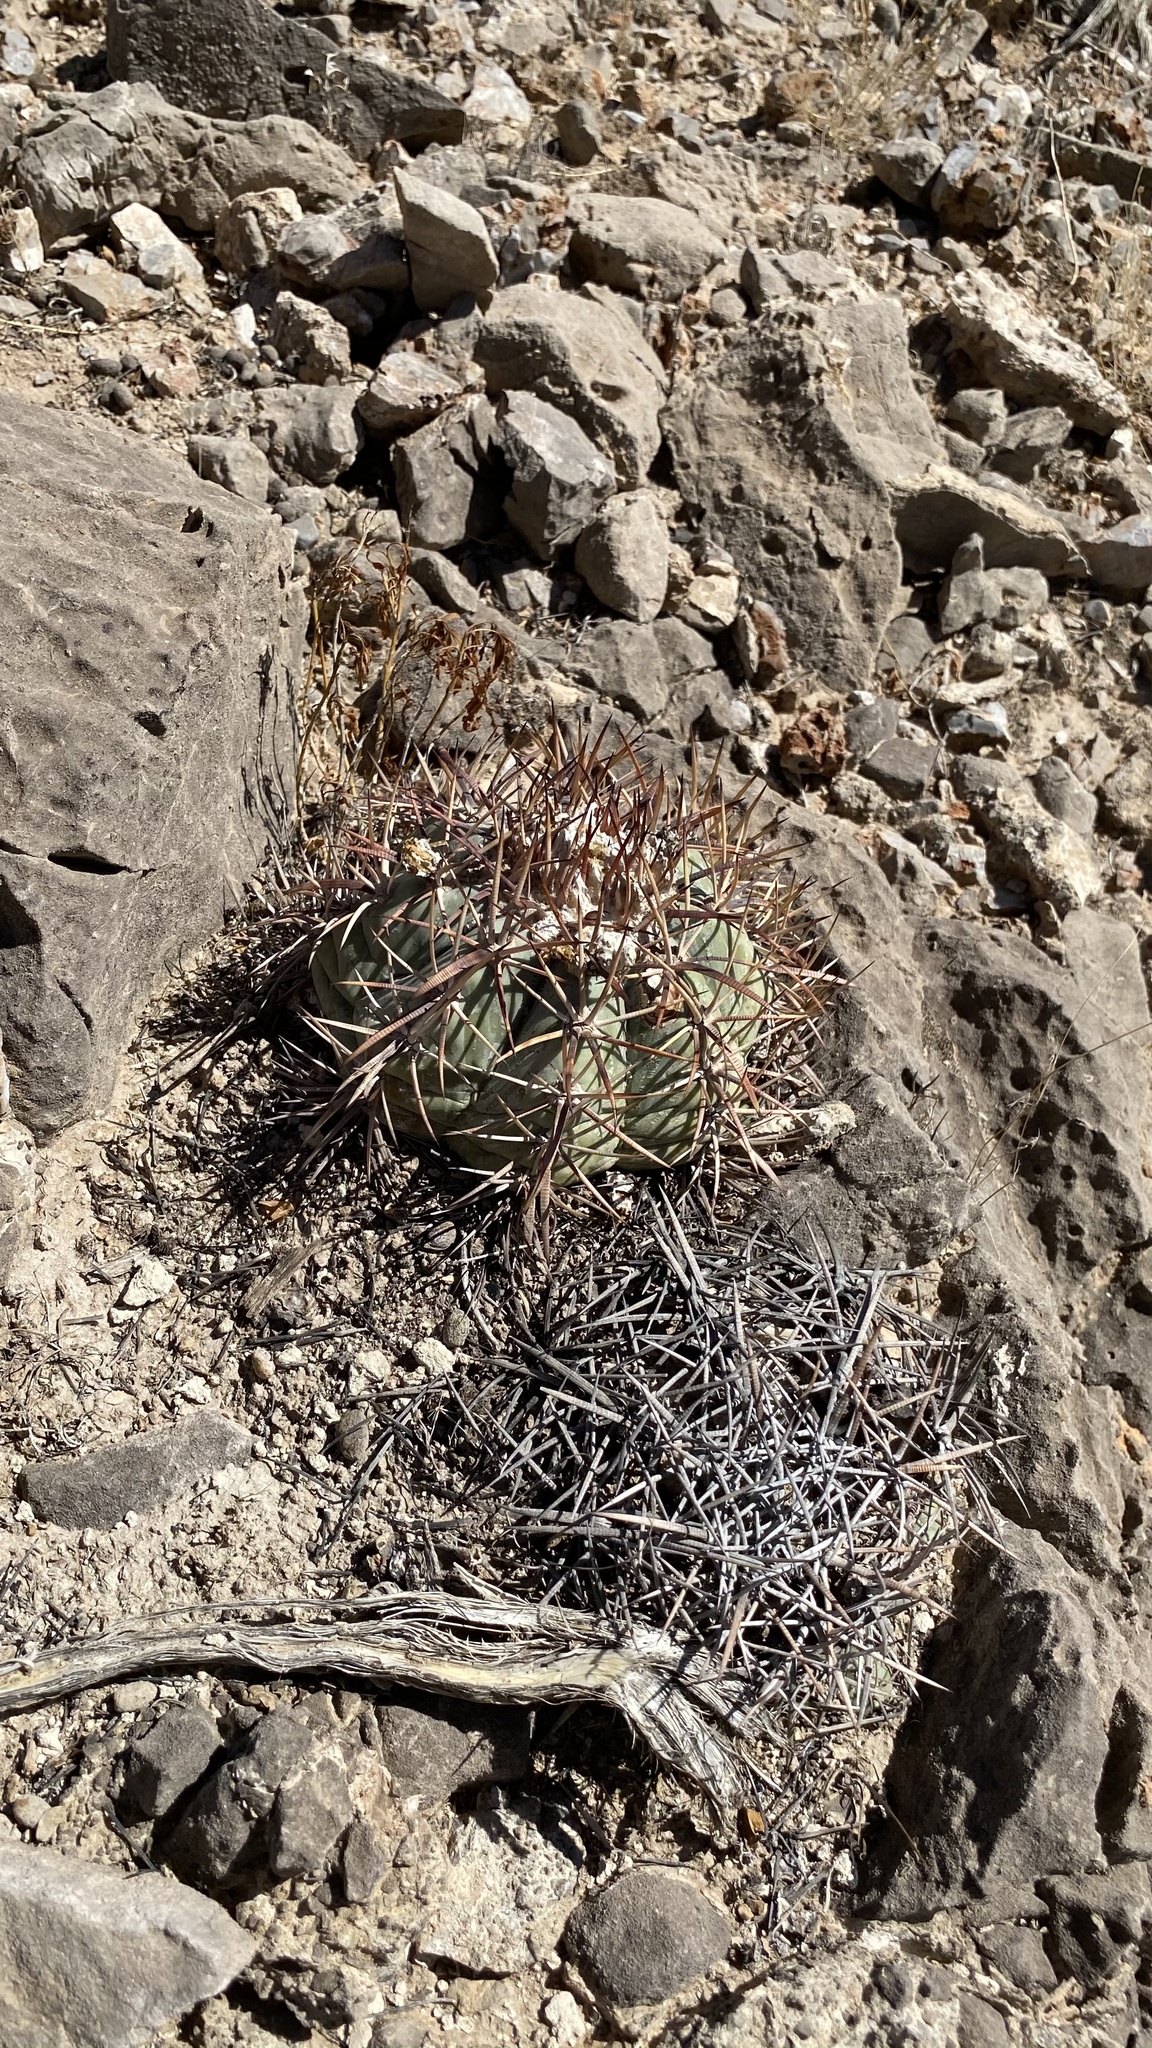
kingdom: Plantae
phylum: Tracheophyta
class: Magnoliopsida
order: Caryophyllales
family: Cactaceae
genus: Echinocactus
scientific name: Echinocactus horizonthalonius
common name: Devilshead
